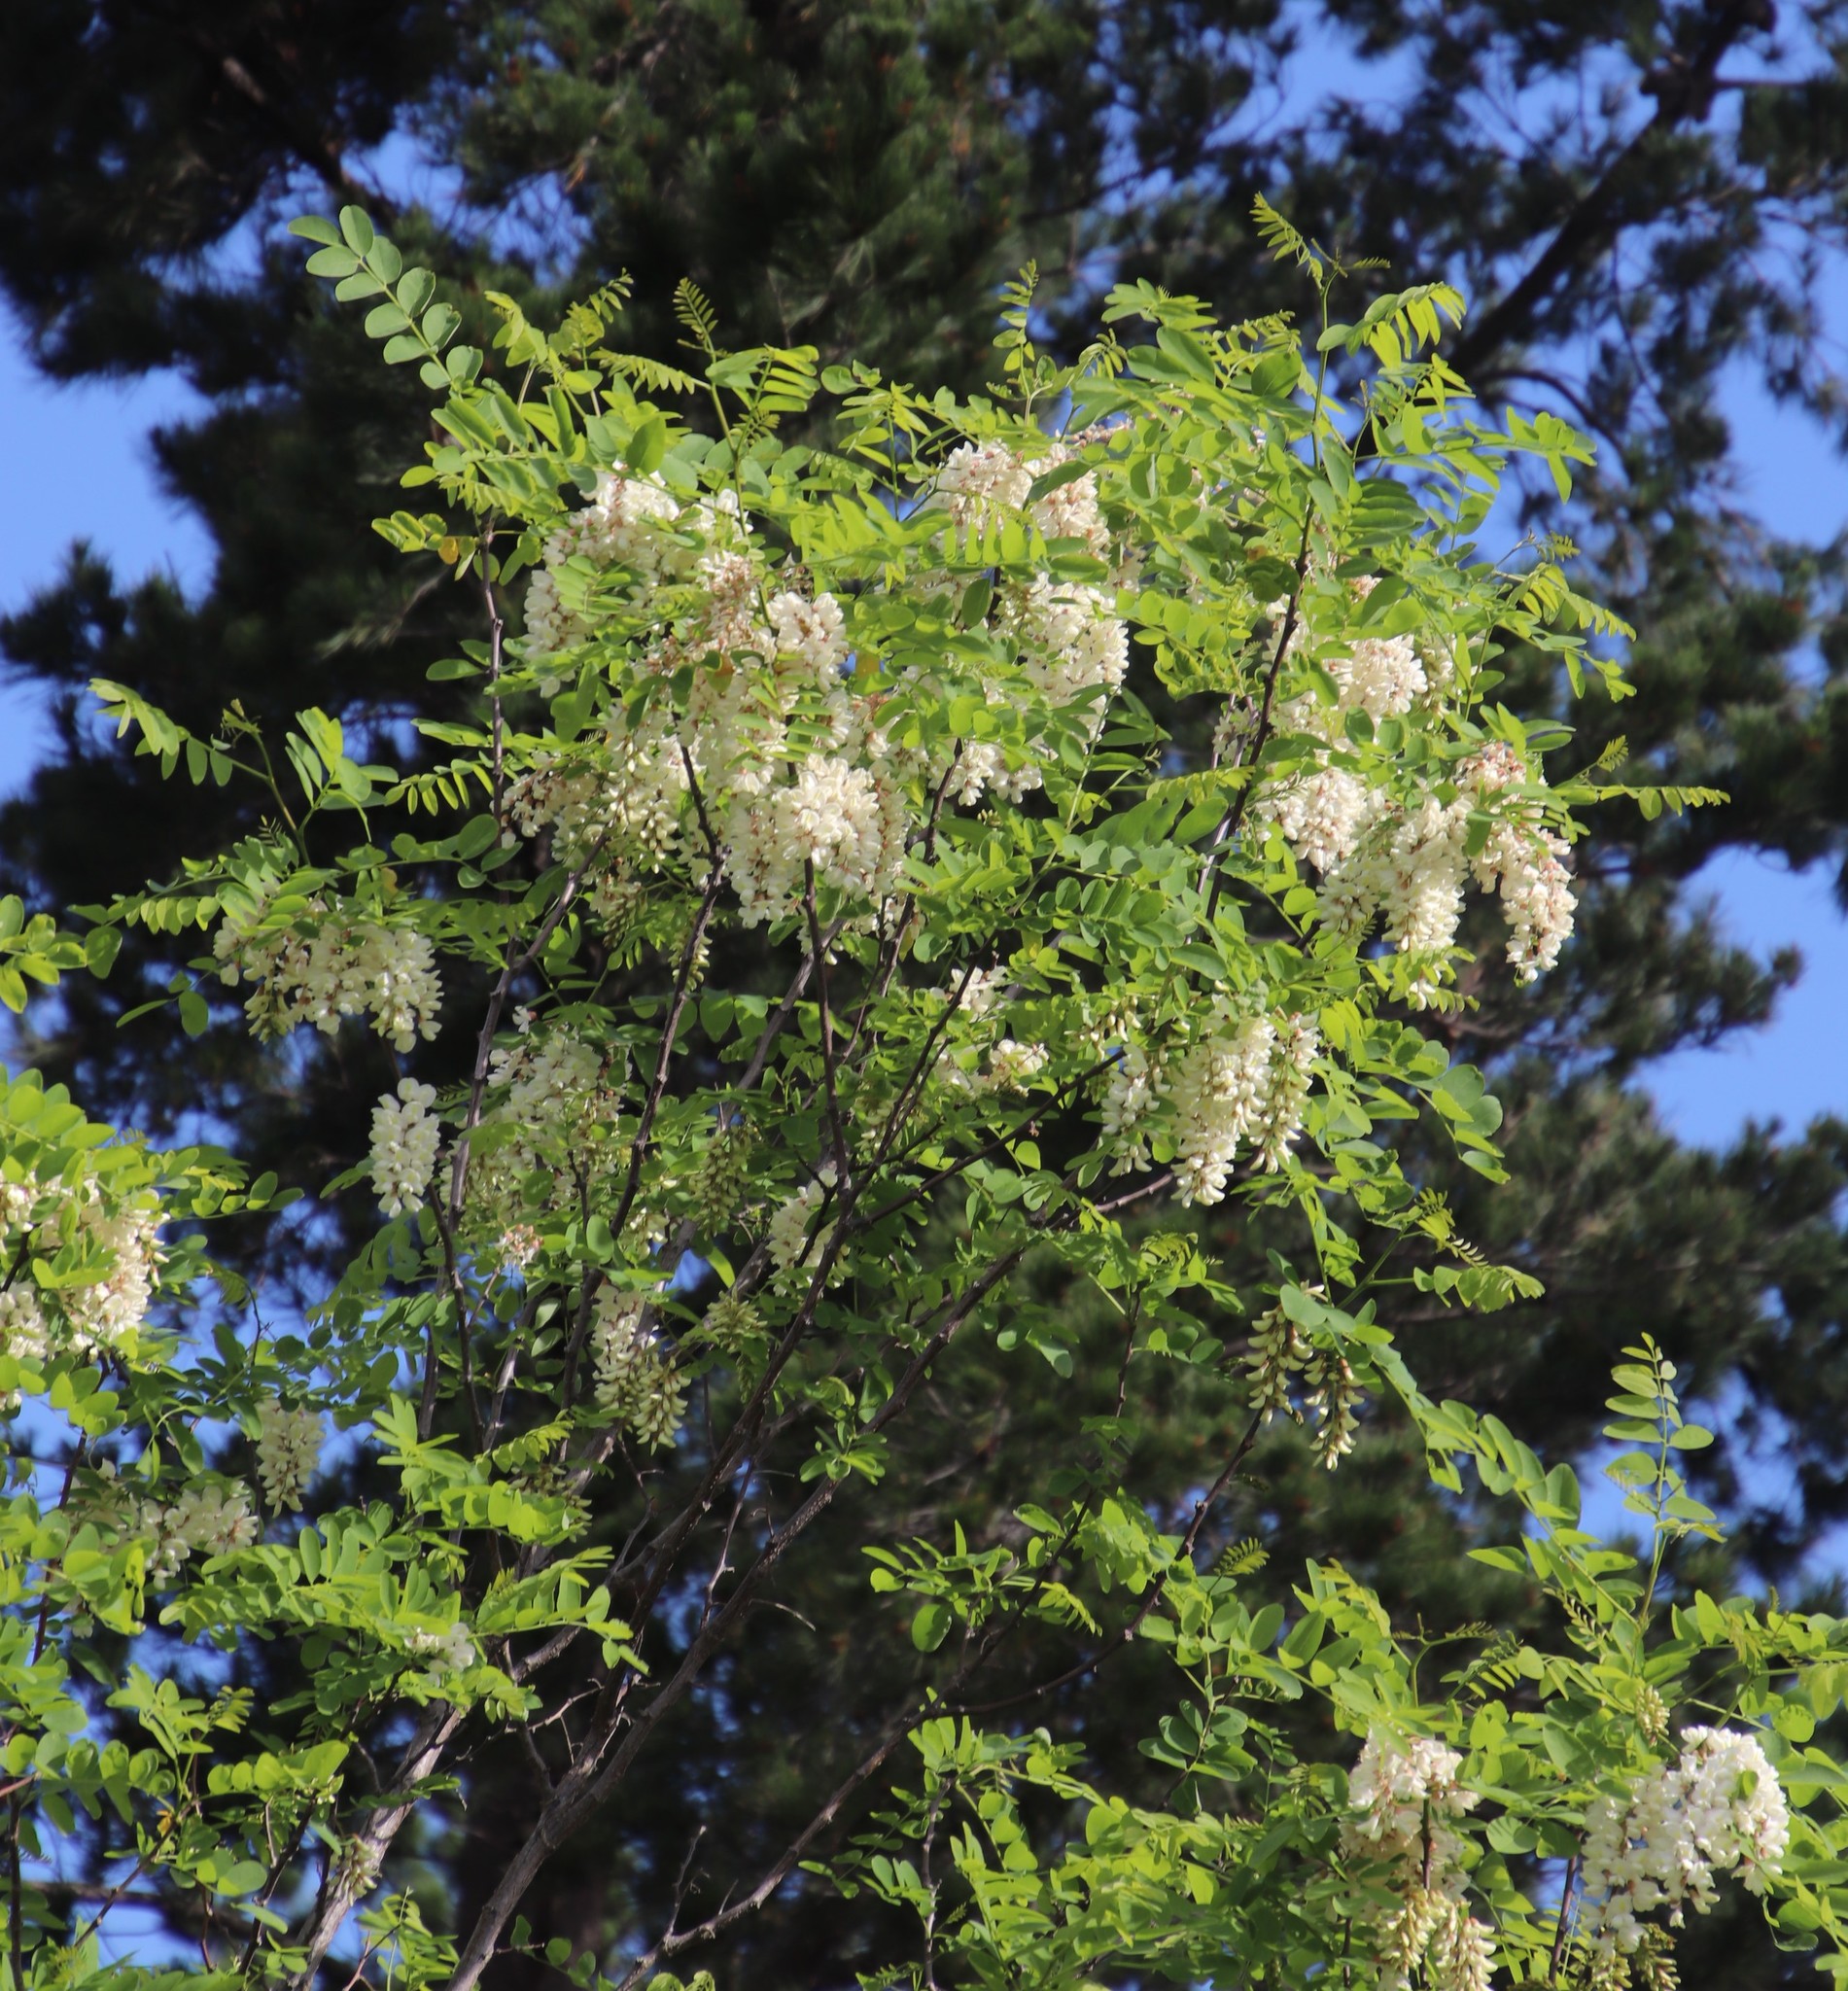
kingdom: Plantae
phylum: Tracheophyta
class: Magnoliopsida
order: Fabales
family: Fabaceae
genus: Robinia
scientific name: Robinia pseudoacacia
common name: Black locust
